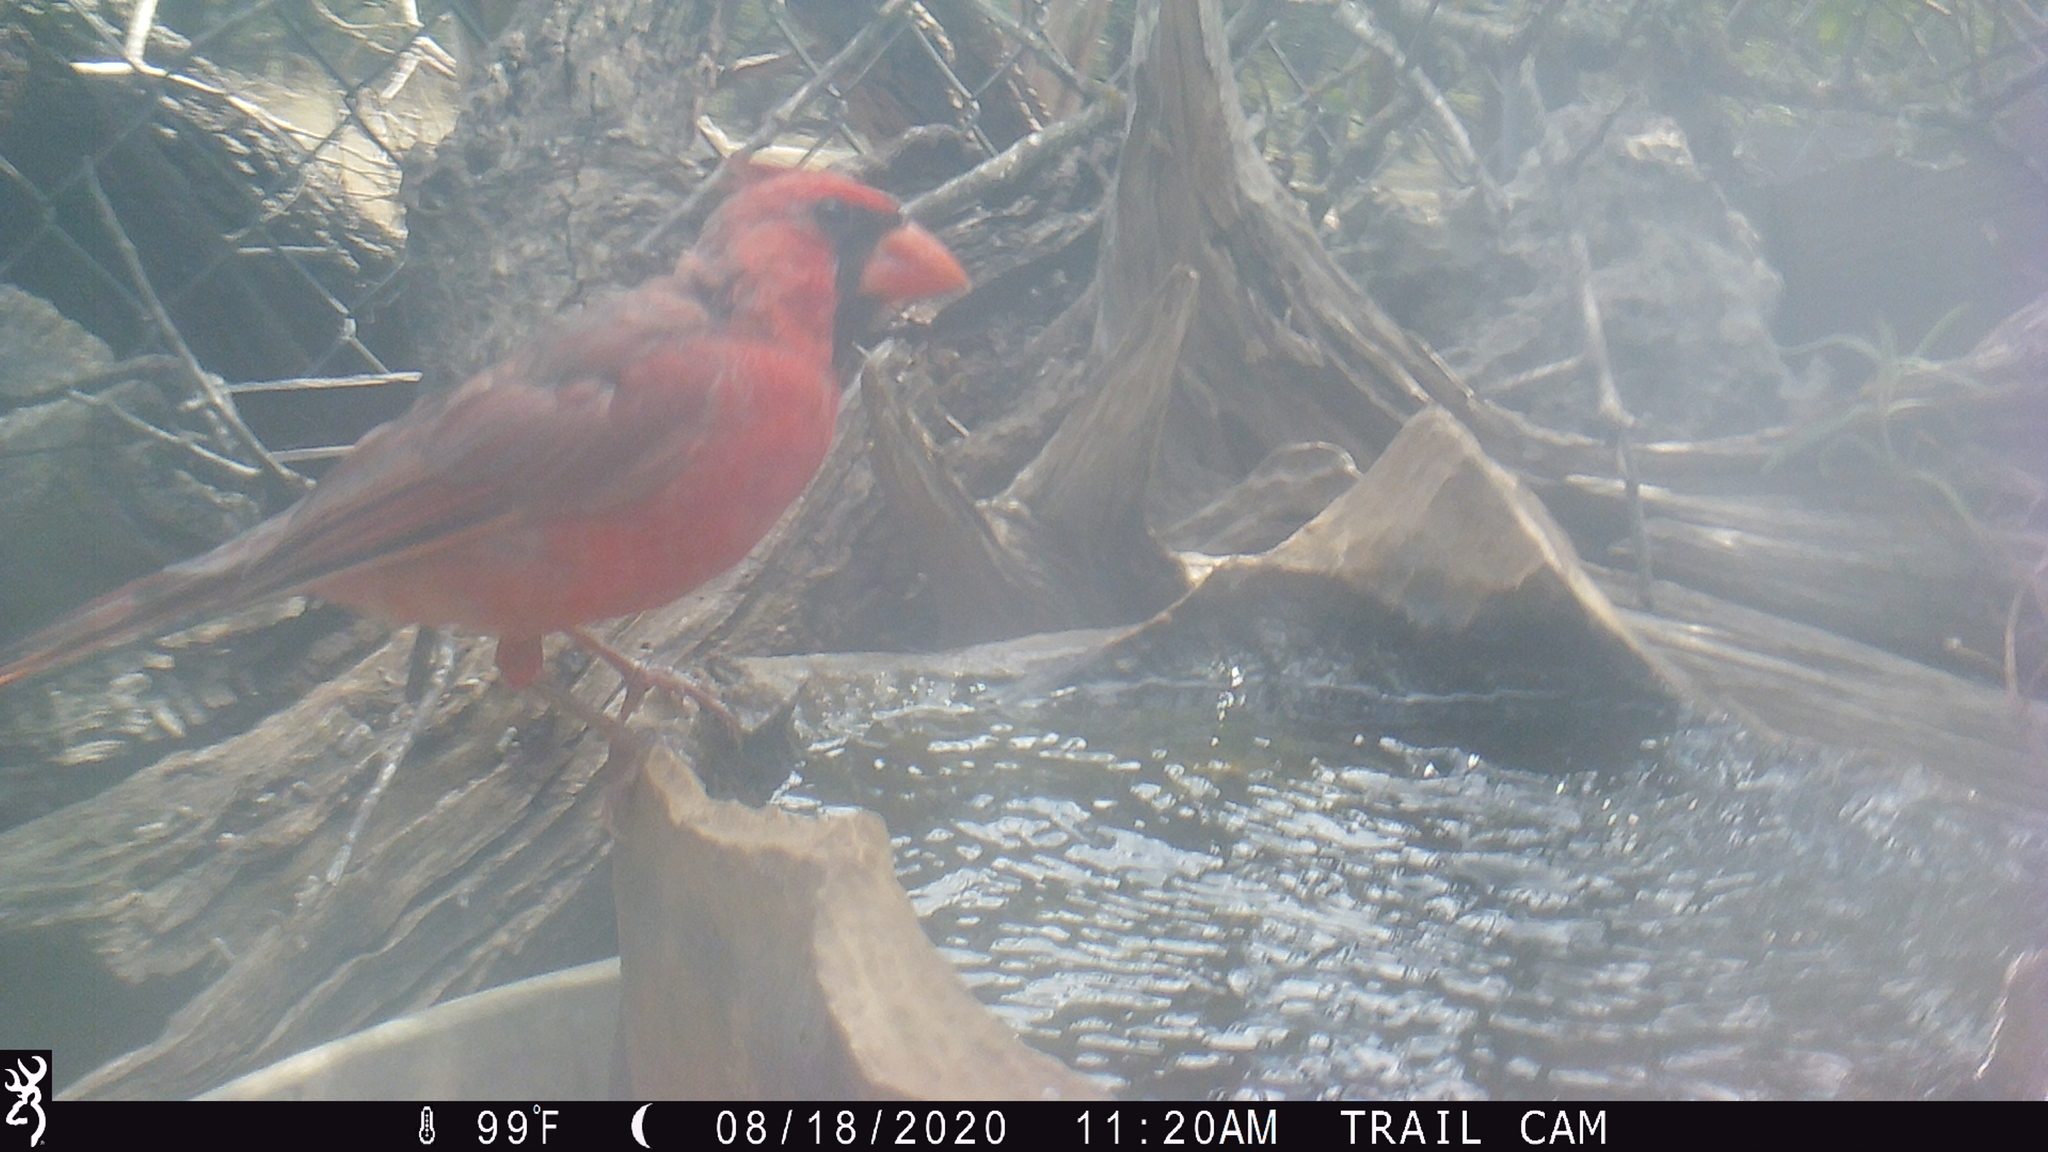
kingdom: Animalia
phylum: Chordata
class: Aves
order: Passeriformes
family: Cardinalidae
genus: Cardinalis
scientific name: Cardinalis cardinalis
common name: Northern cardinal
